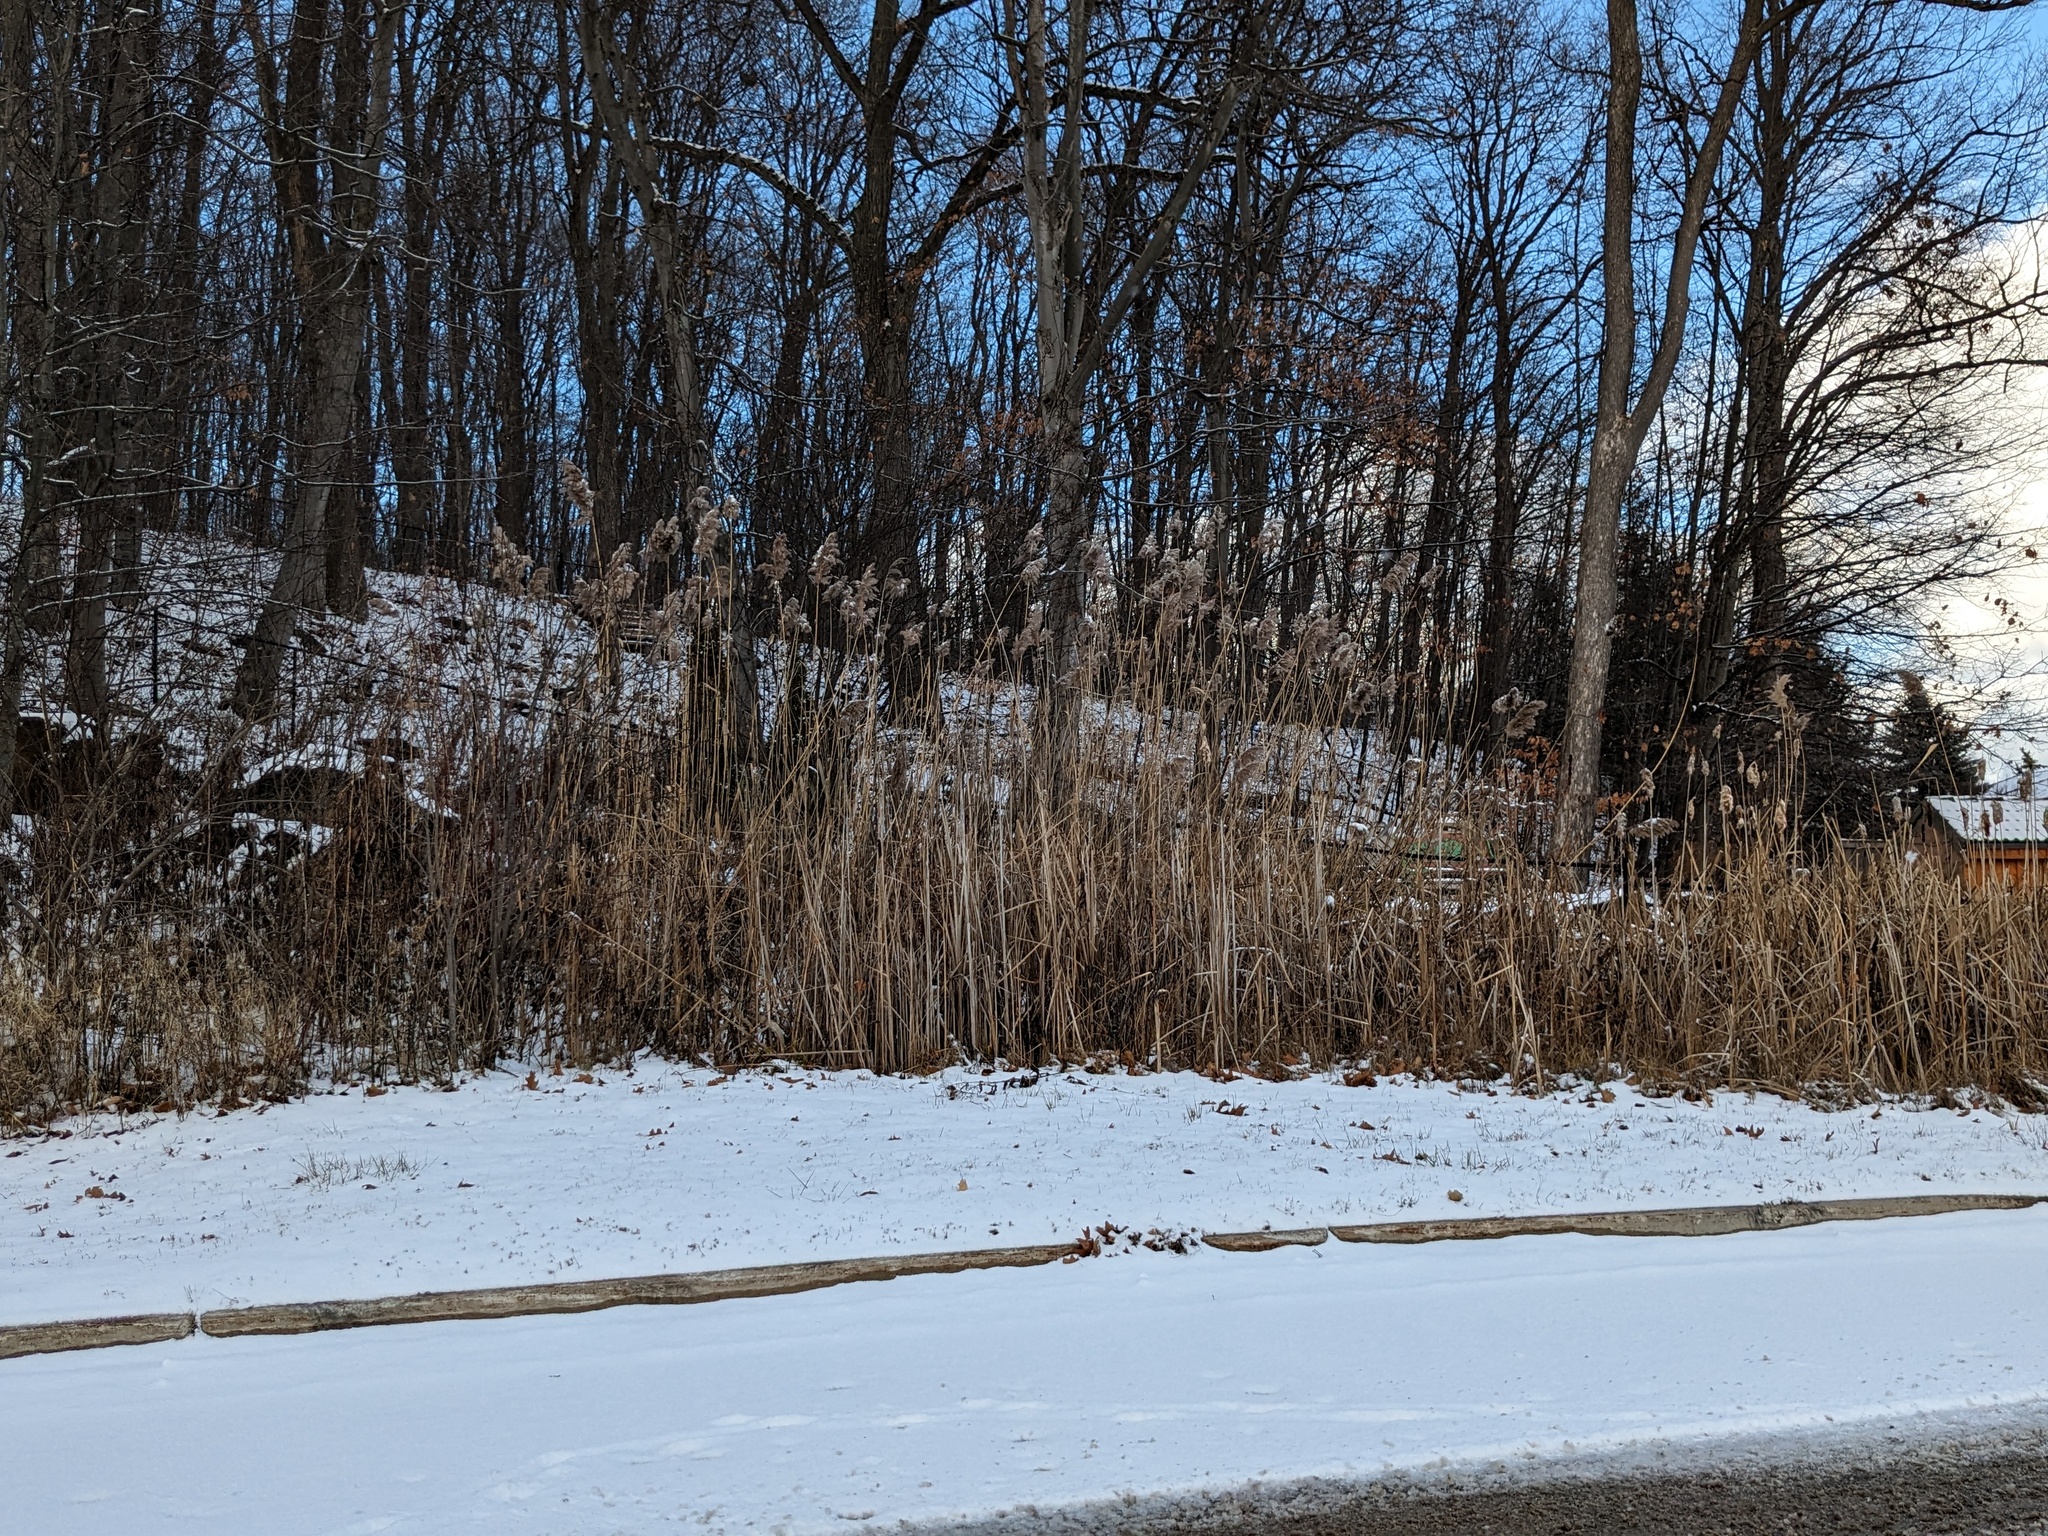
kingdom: Plantae
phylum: Tracheophyta
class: Liliopsida
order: Poales
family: Poaceae
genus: Phragmites
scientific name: Phragmites australis
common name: Common reed
